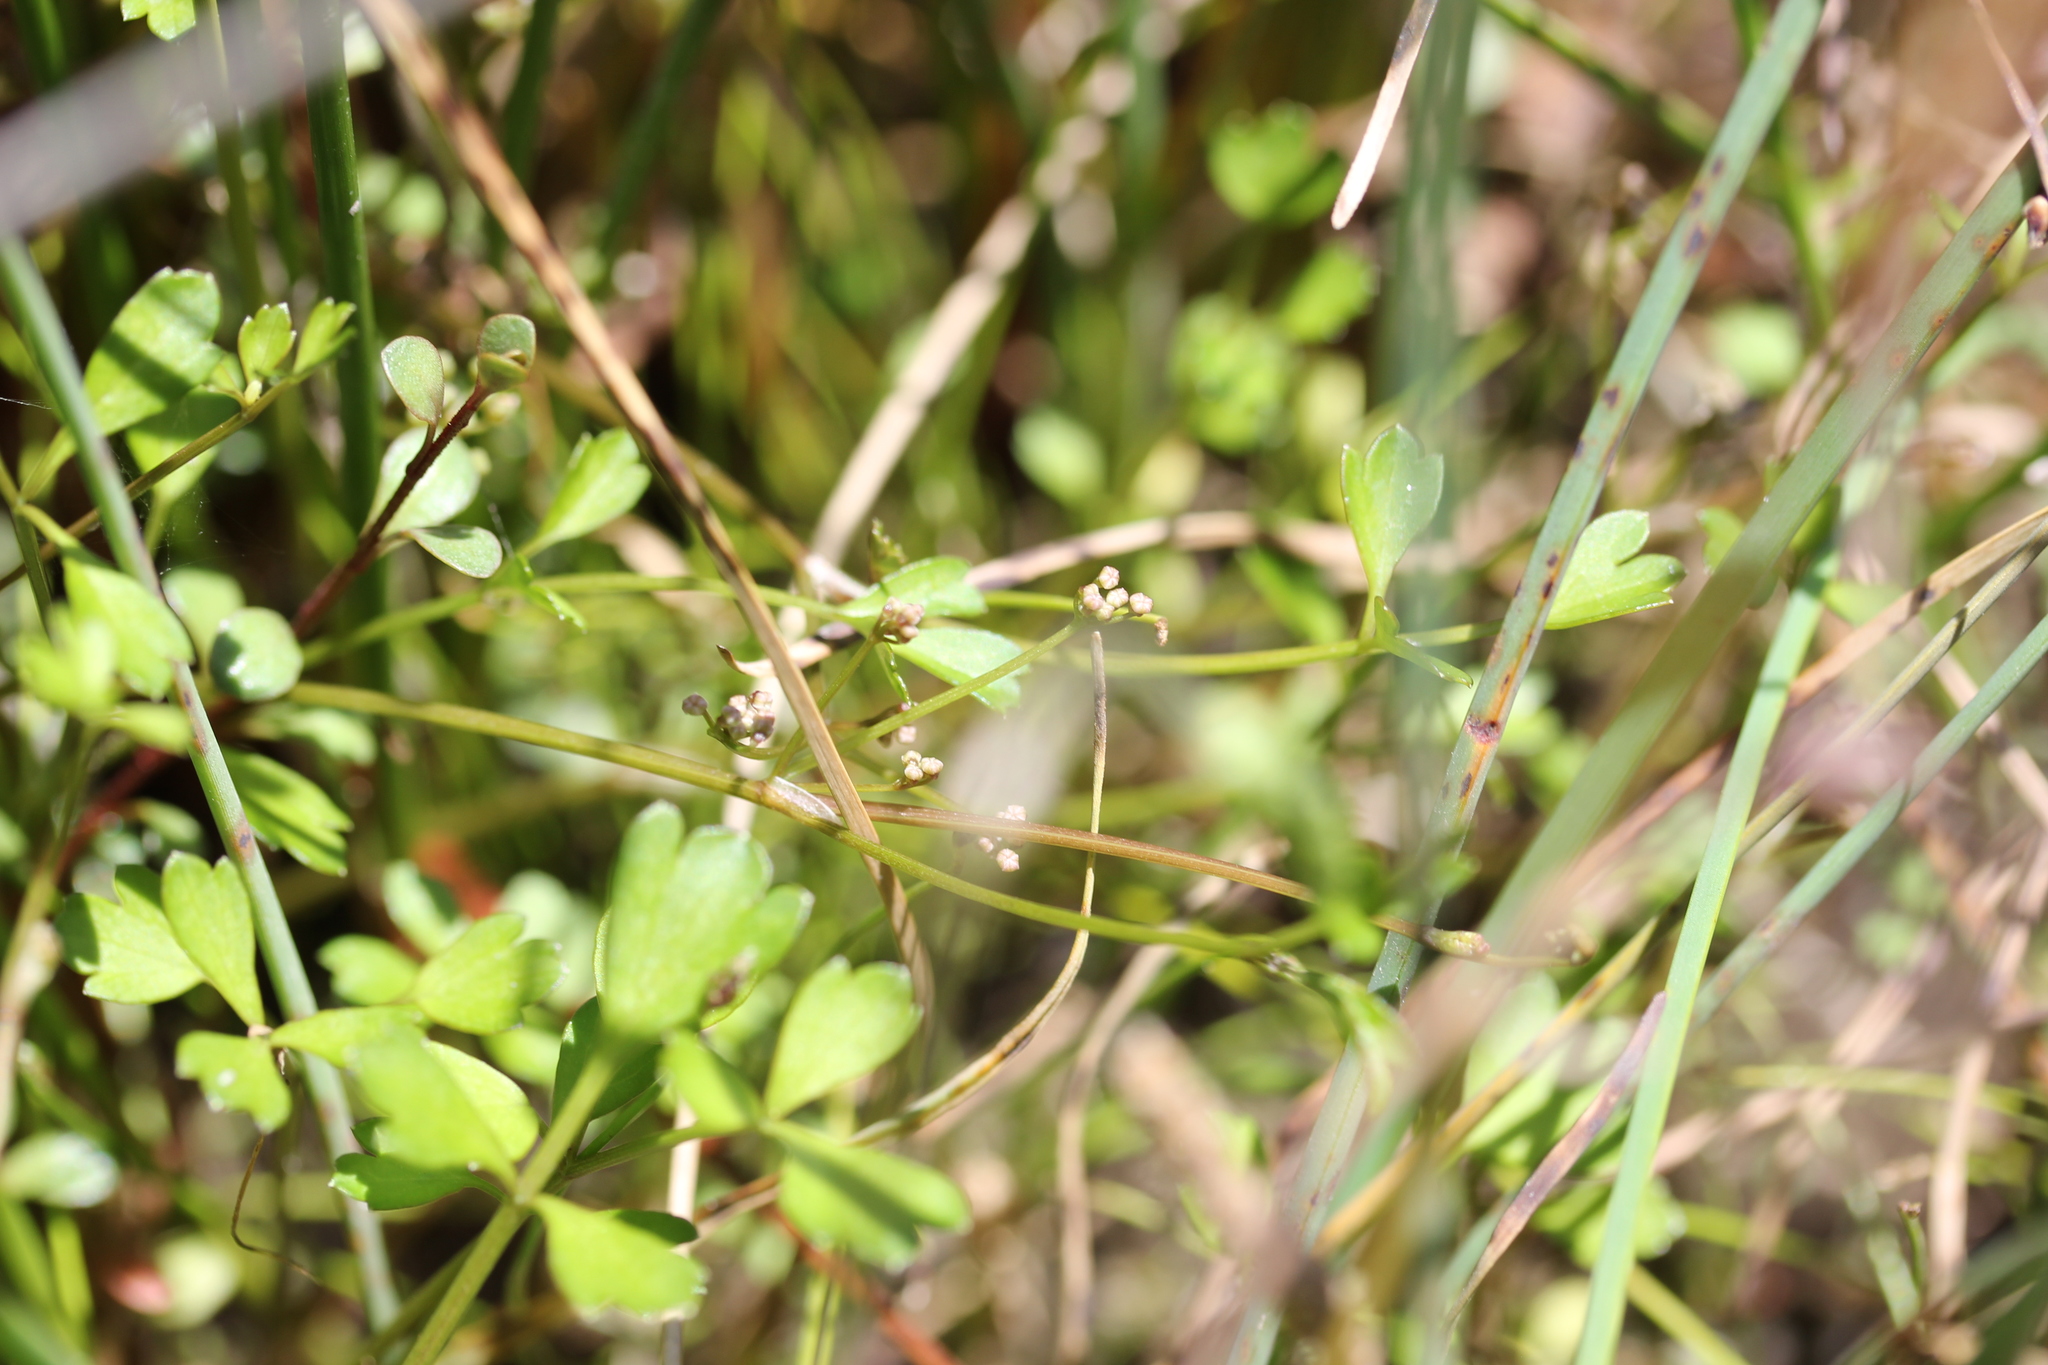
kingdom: Plantae
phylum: Tracheophyta
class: Magnoliopsida
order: Apiales
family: Apiaceae
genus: Apium
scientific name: Apium prostratum
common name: Prostrate marshwort
